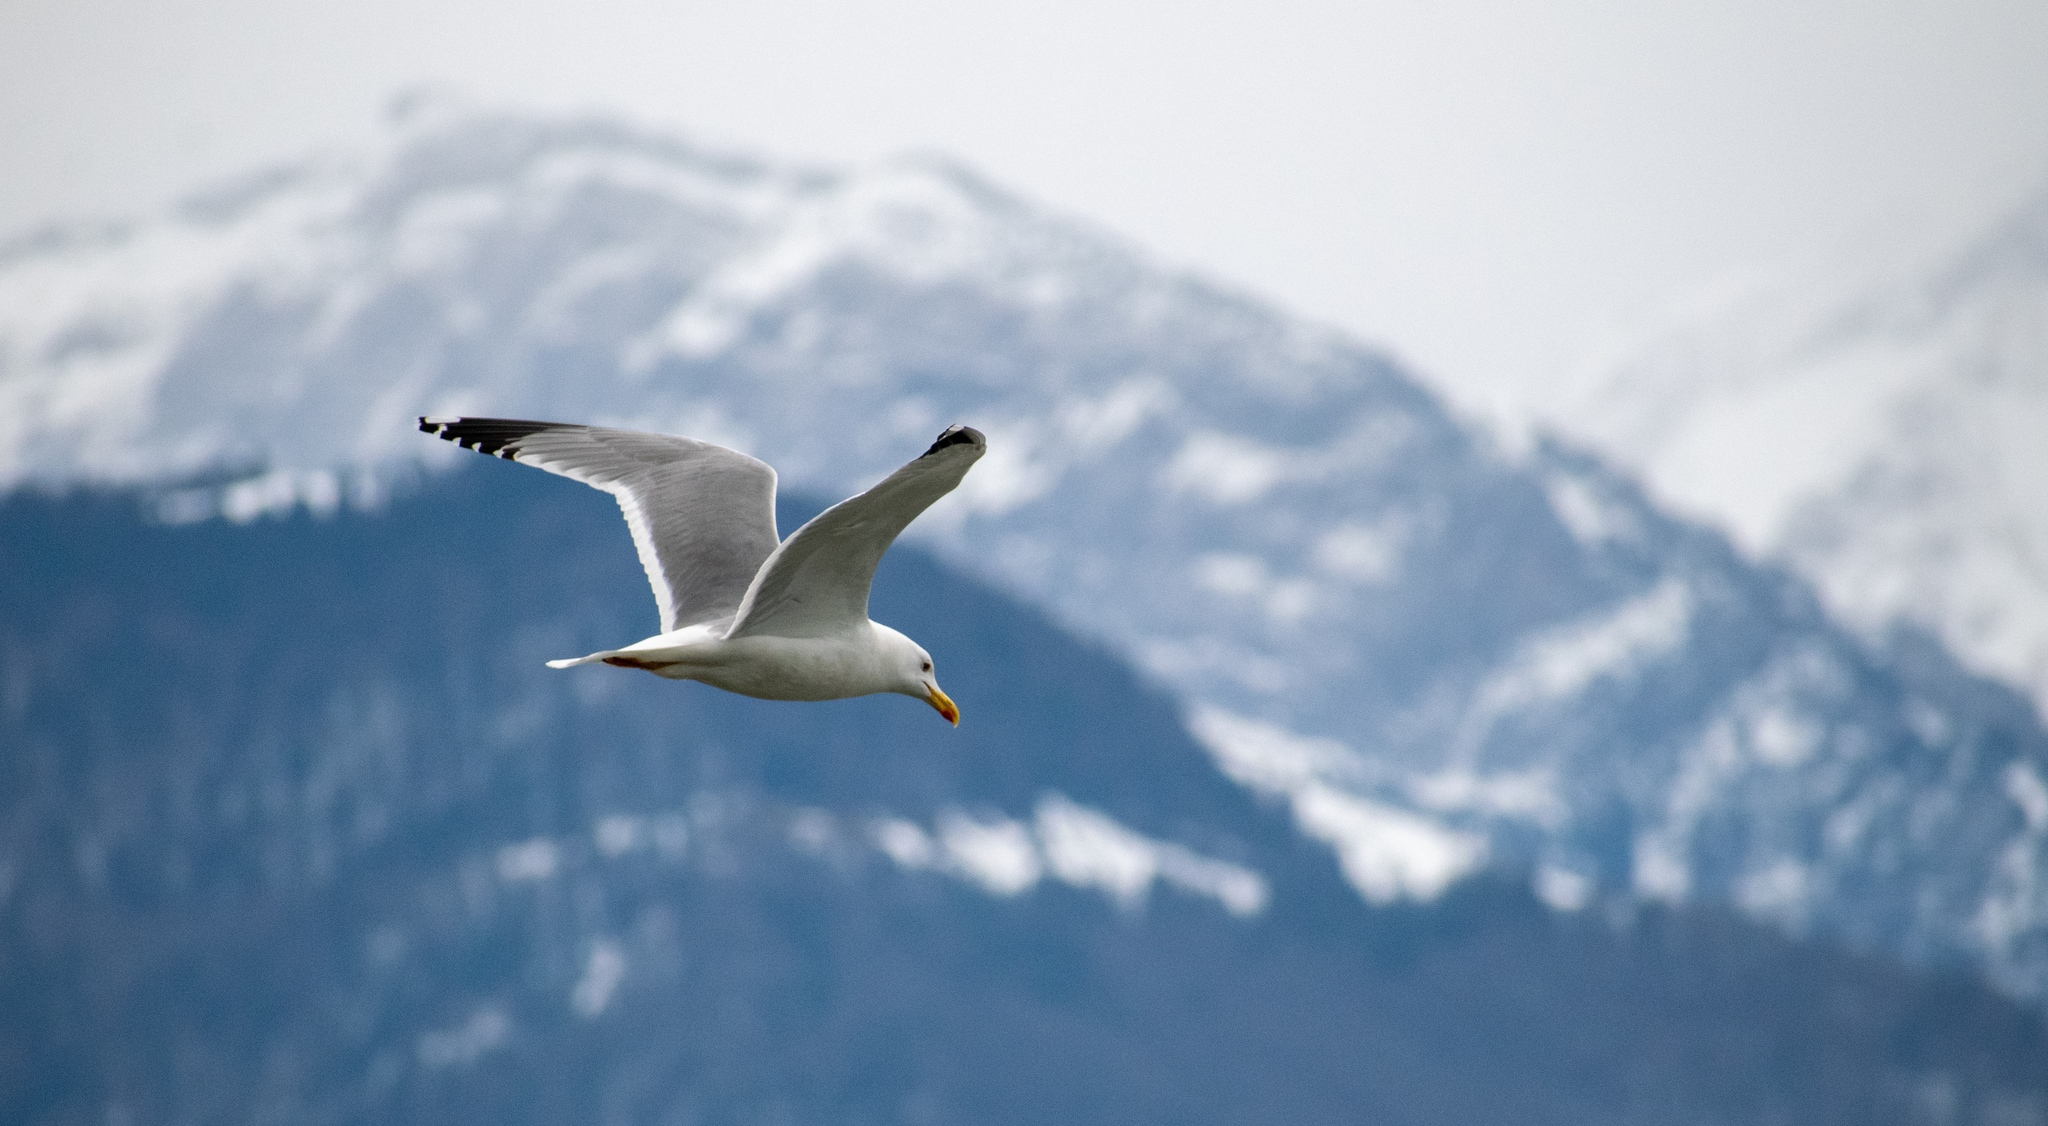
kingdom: Animalia
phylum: Chordata
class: Aves
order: Charadriiformes
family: Laridae
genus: Larus
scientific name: Larus michahellis
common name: Yellow-legged gull
